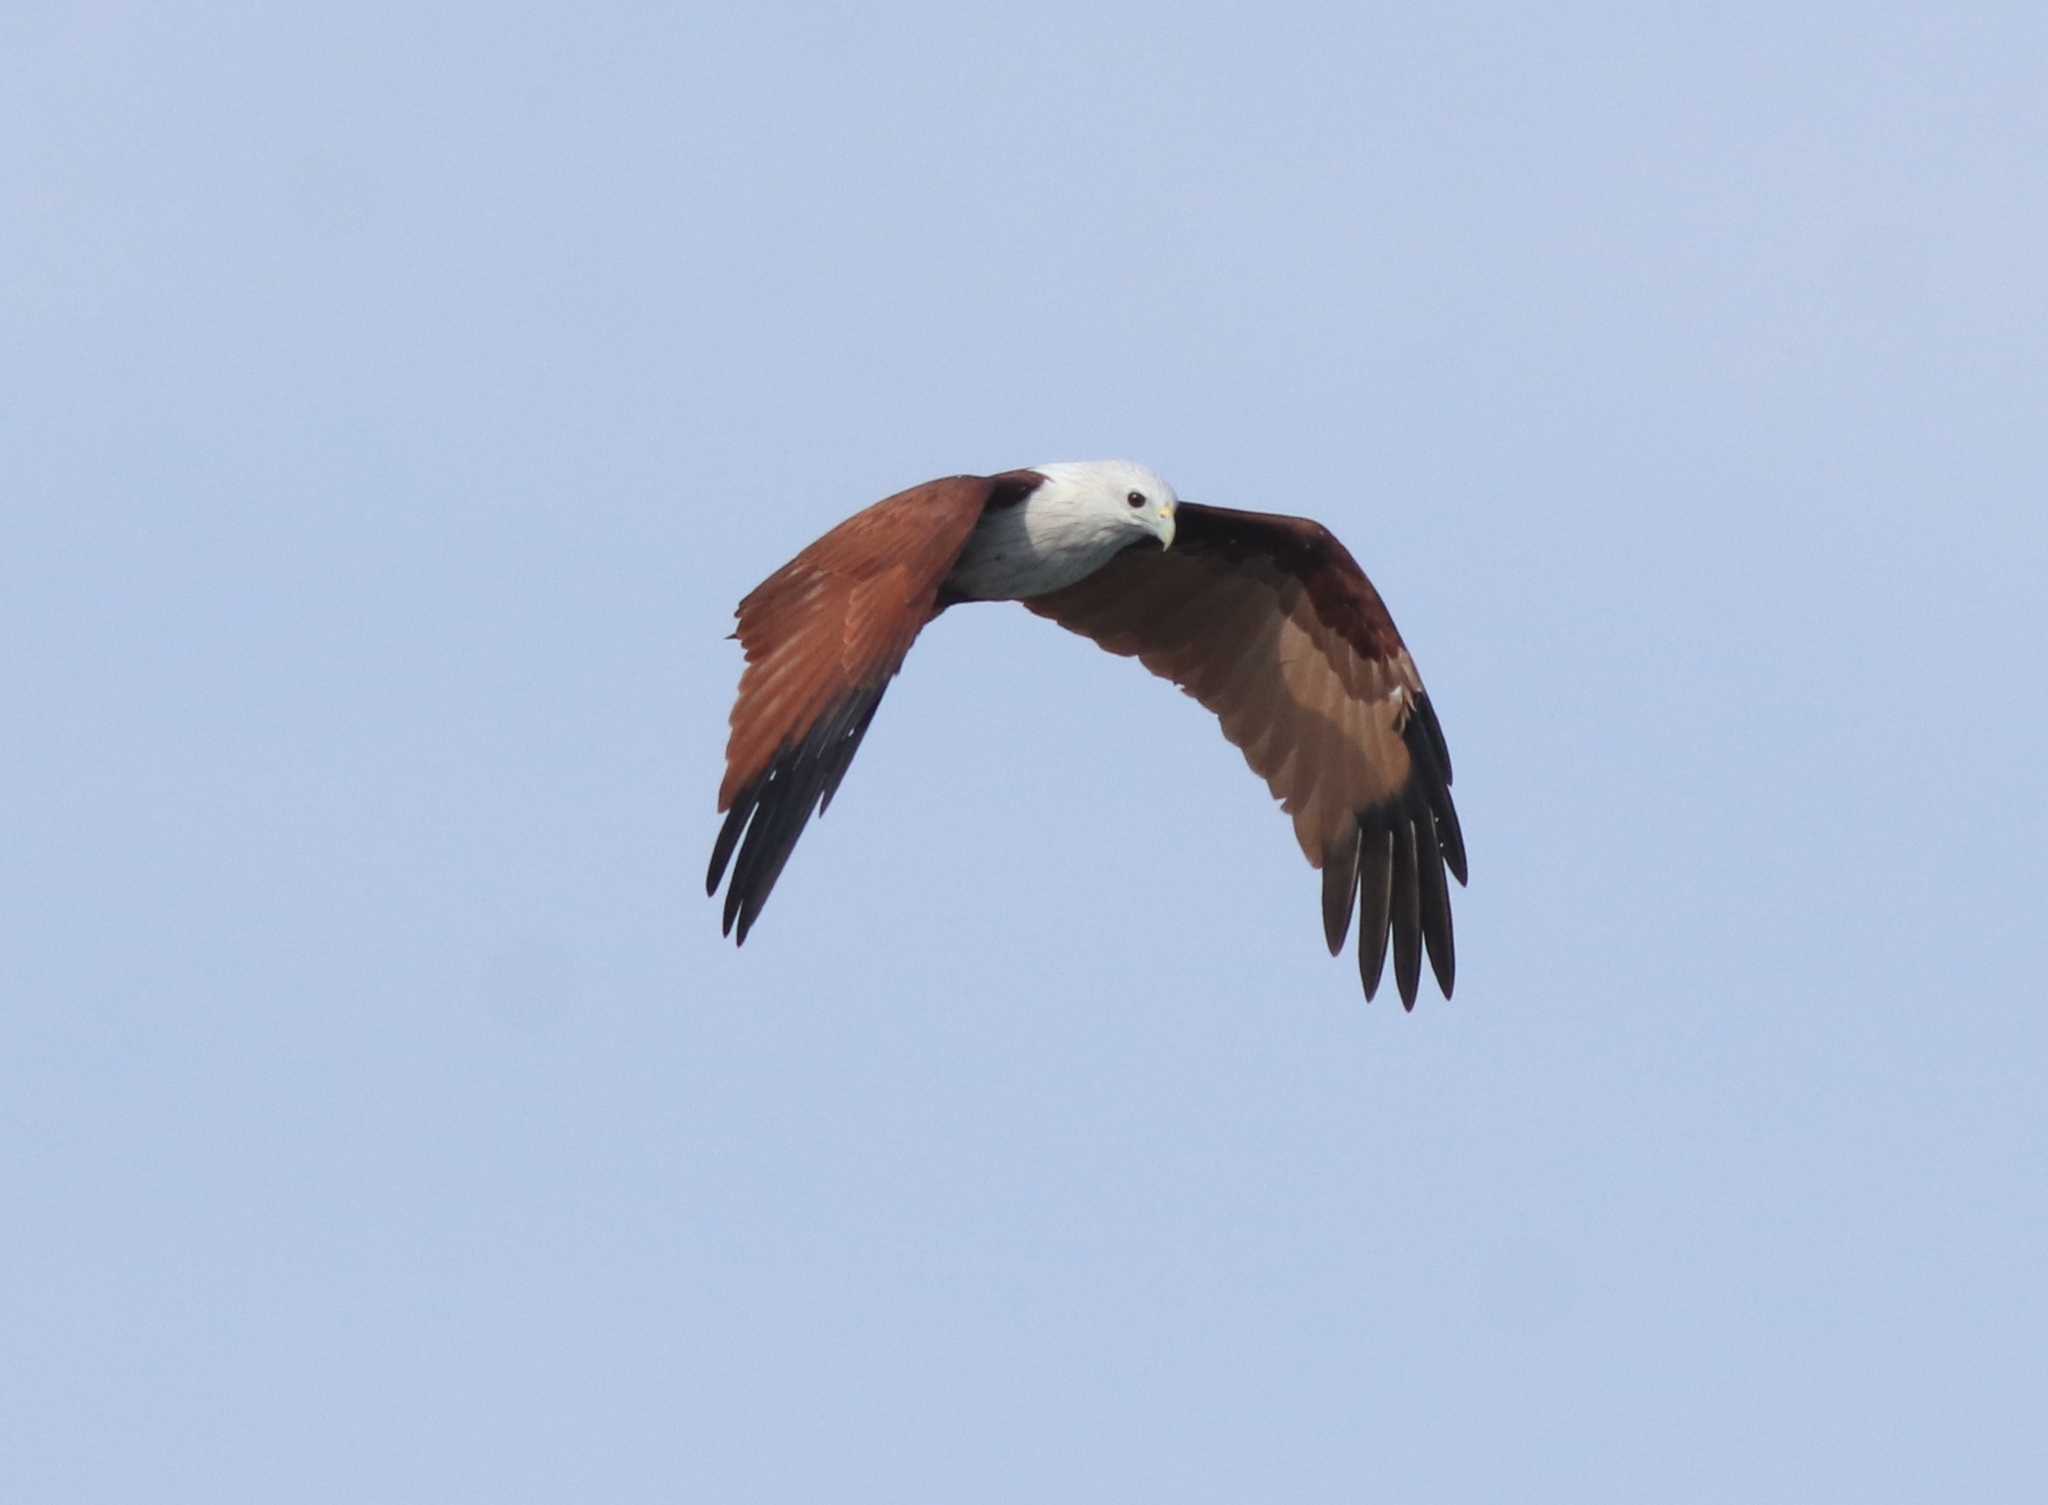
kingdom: Animalia
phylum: Chordata
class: Aves
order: Accipitriformes
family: Accipitridae
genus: Haliastur
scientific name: Haliastur indus
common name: Brahminy kite
